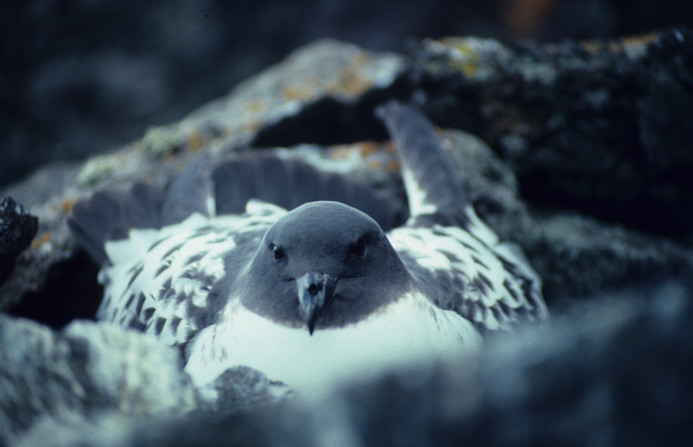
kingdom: Animalia
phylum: Chordata
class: Aves
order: Procellariiformes
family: Procellariidae
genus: Daption
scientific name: Daption capense
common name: Cape petrel
